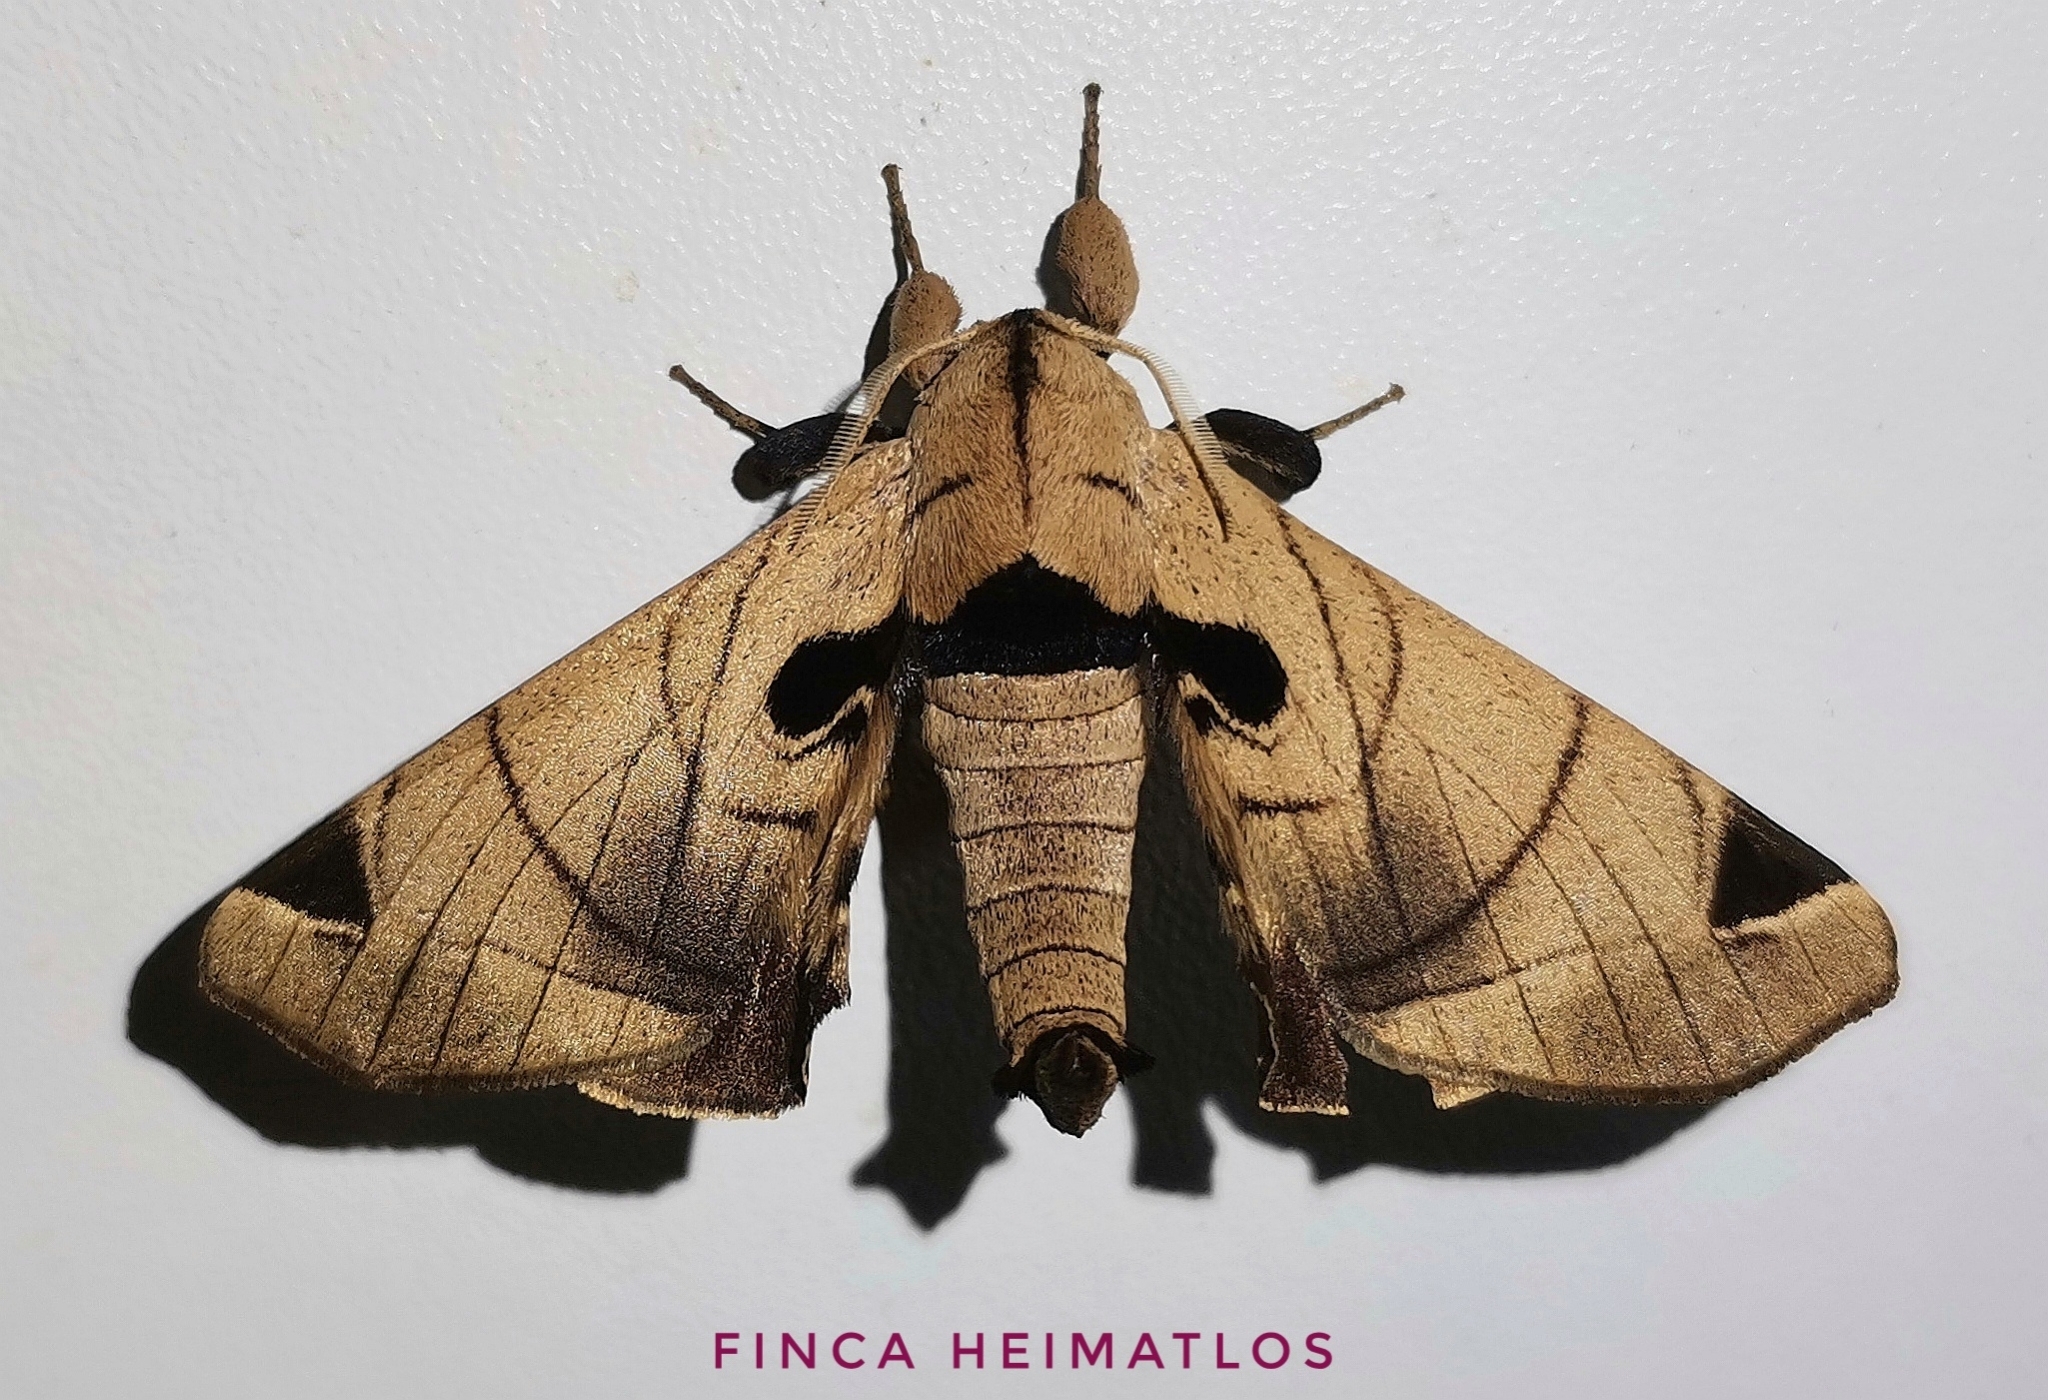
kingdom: Animalia
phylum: Arthropoda
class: Insecta
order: Lepidoptera
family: Apatelodidae
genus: Hygrochroa
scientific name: Hygrochroa Apatelodes pandarioides
